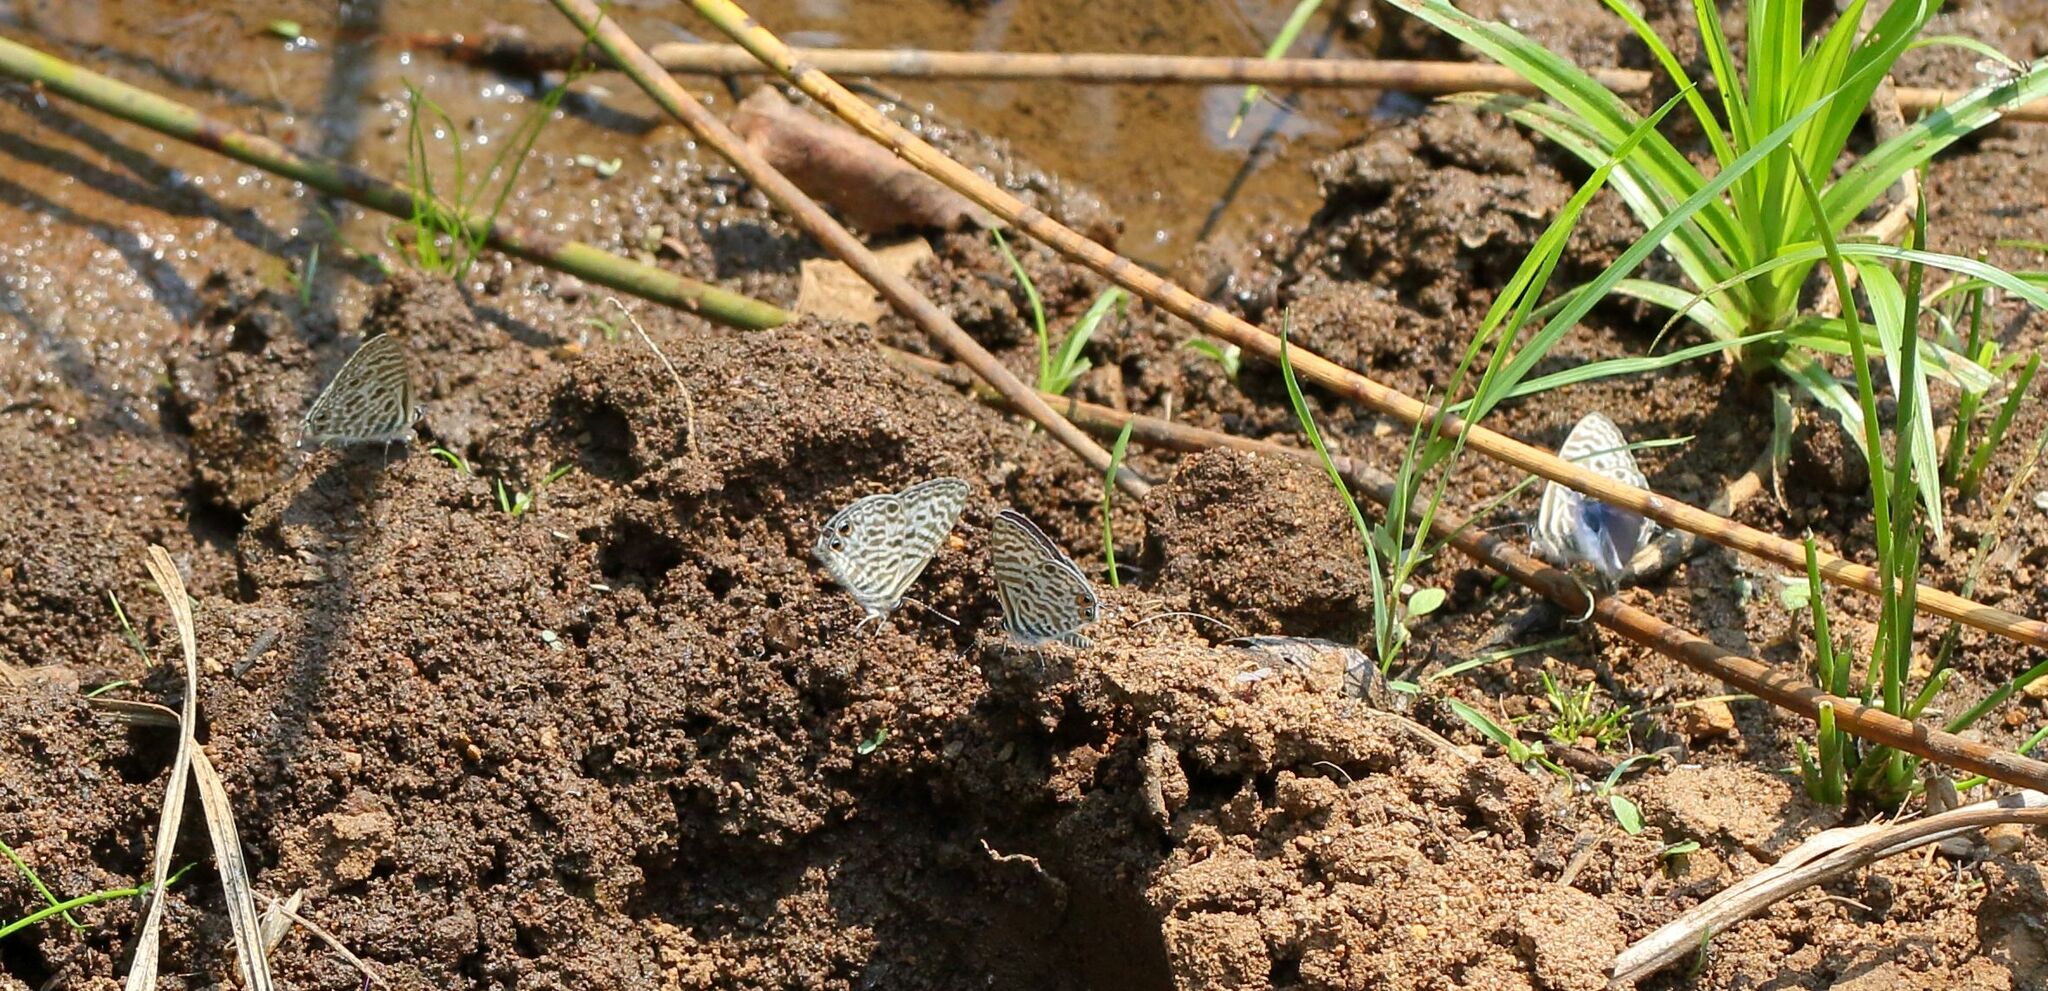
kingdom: Animalia
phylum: Arthropoda
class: Insecta
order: Lepidoptera
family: Lycaenidae
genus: Leptotes
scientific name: Leptotes
